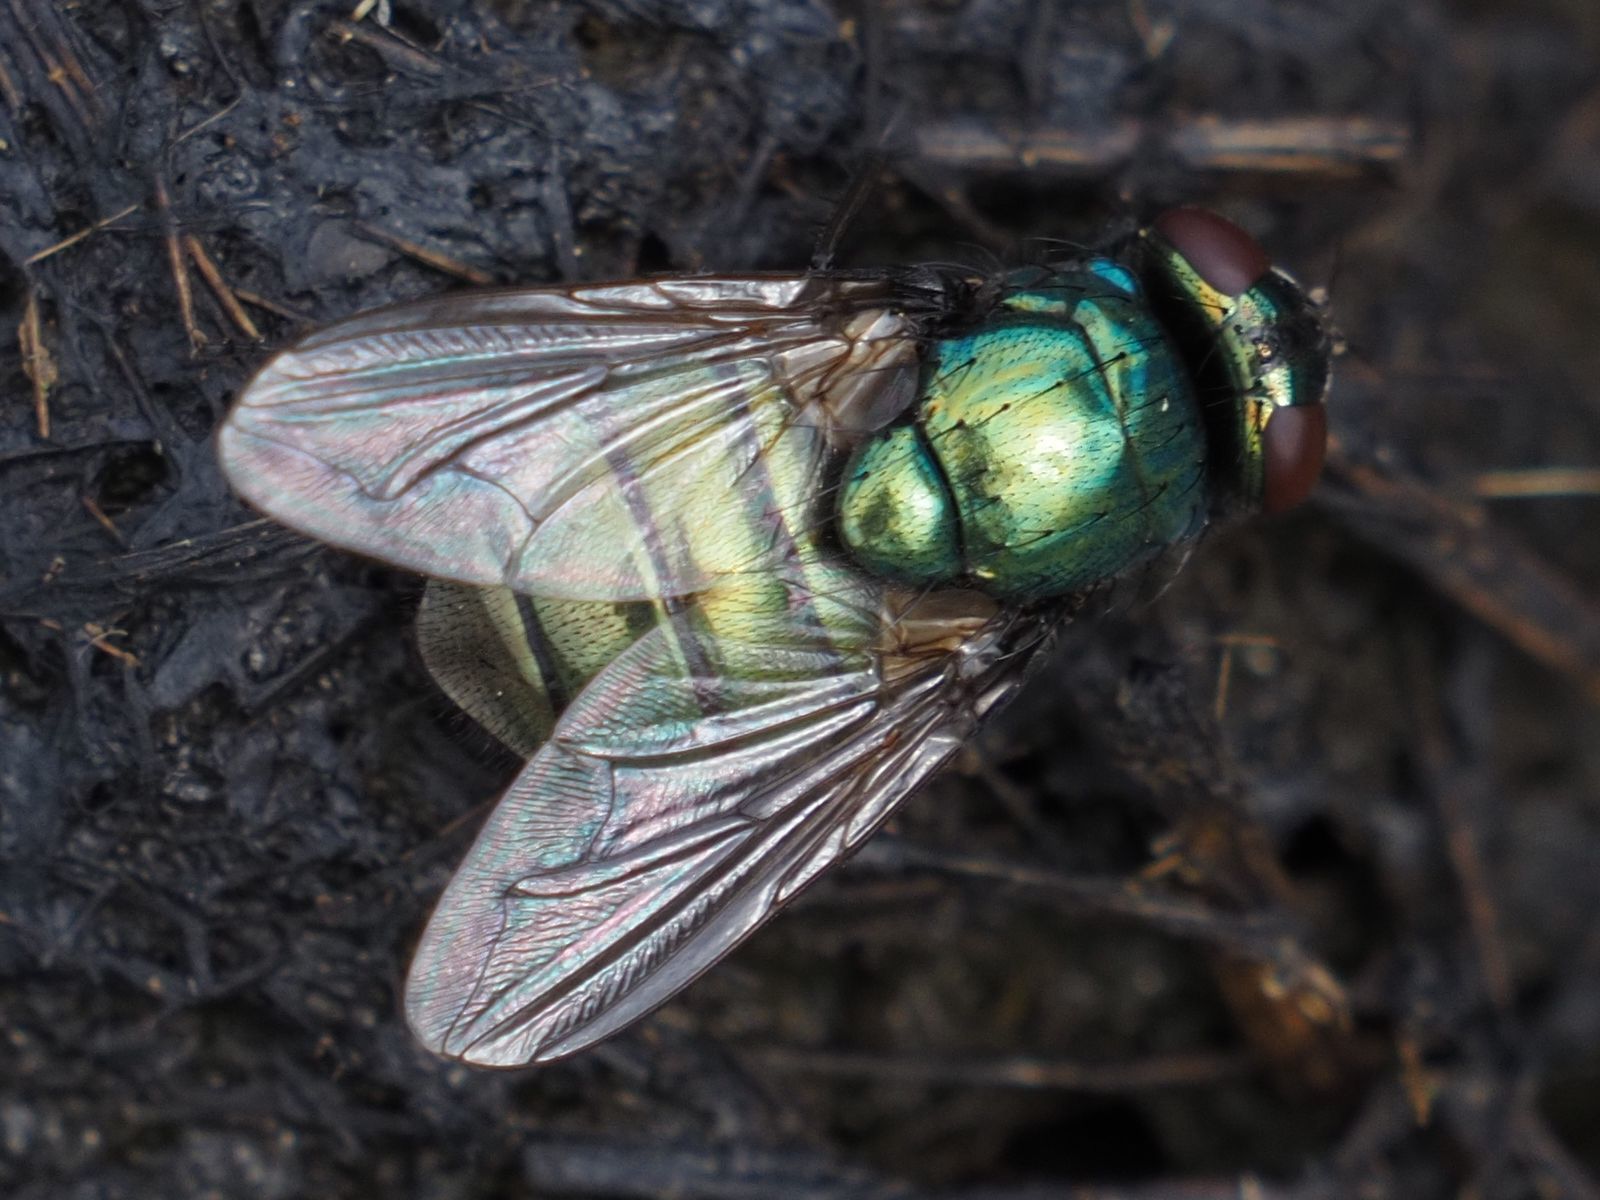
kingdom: Animalia
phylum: Arthropoda
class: Insecta
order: Diptera
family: Muscidae
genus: Neomyia
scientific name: Neomyia cornicina
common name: House fly
